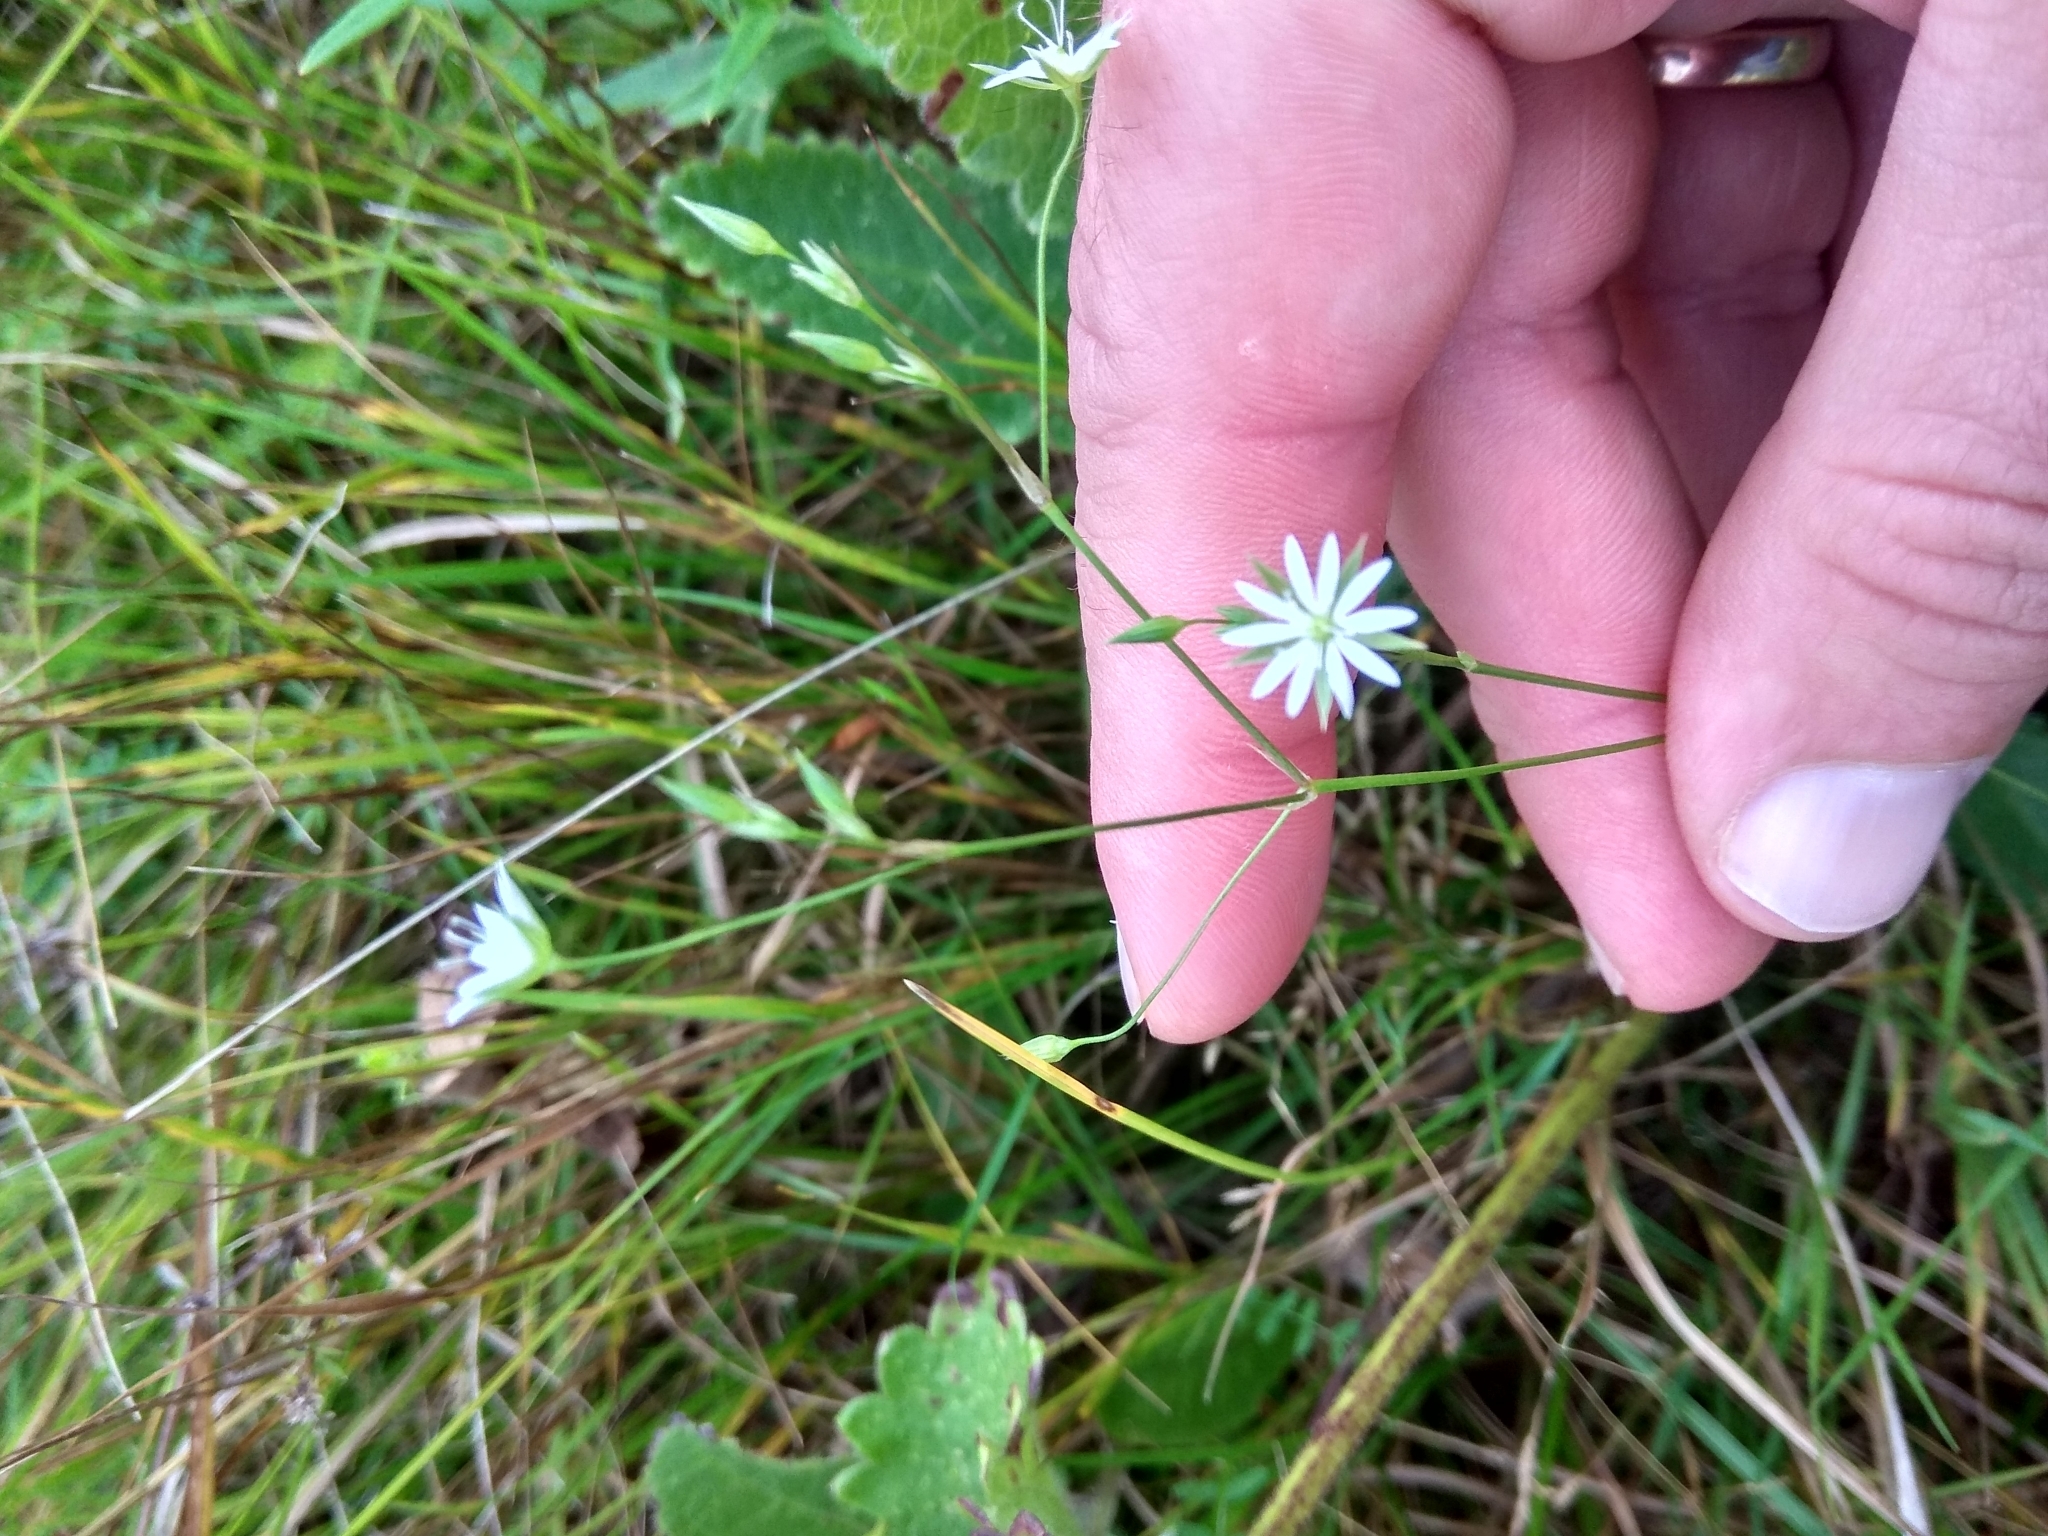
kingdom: Plantae
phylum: Tracheophyta
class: Magnoliopsida
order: Caryophyllales
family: Caryophyllaceae
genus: Stellaria
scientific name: Stellaria graminea
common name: Grass-like starwort
